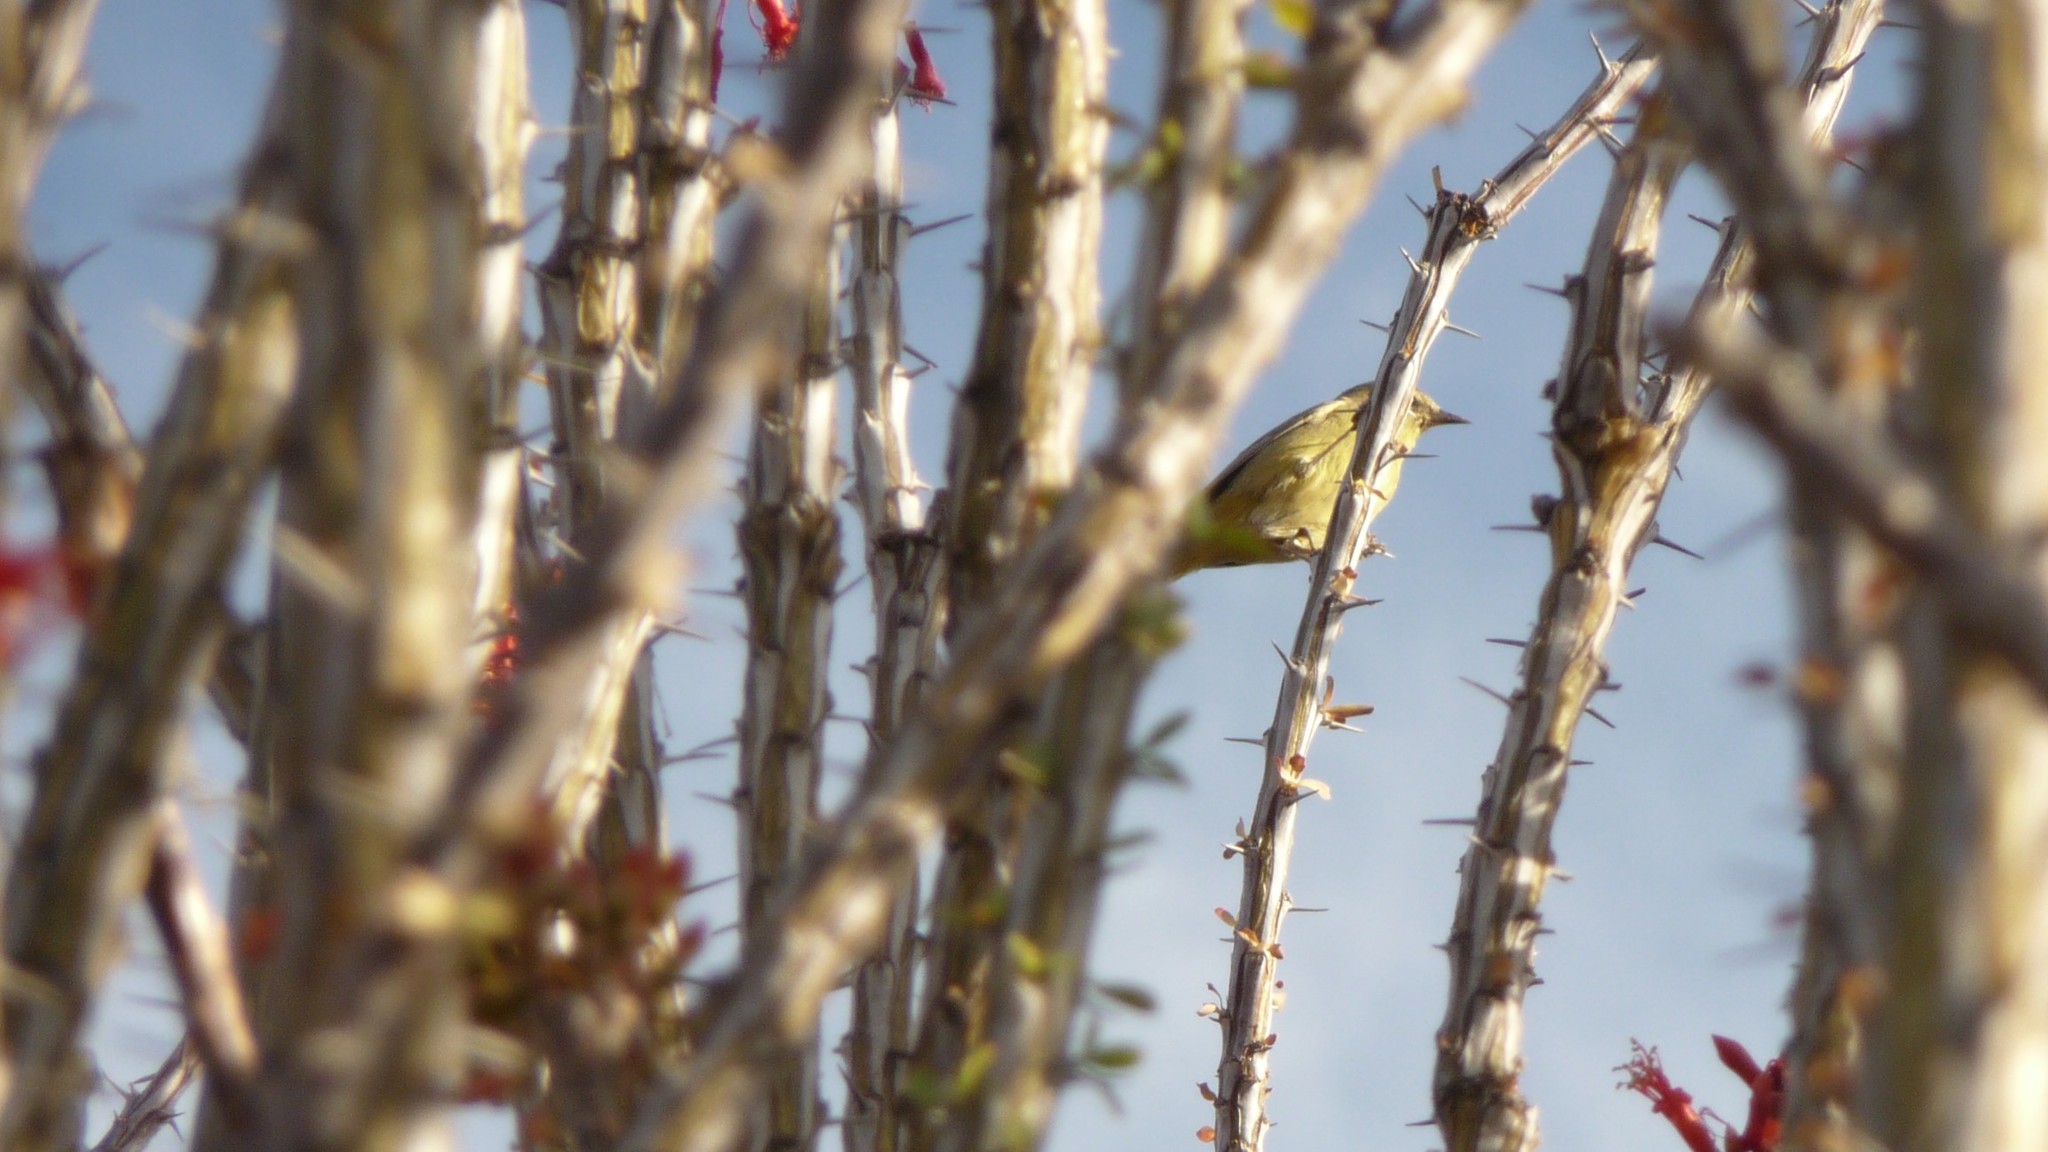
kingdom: Animalia
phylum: Chordata
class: Aves
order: Passeriformes
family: Parulidae
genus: Leiothlypis
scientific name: Leiothlypis celata
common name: Orange-crowned warbler
